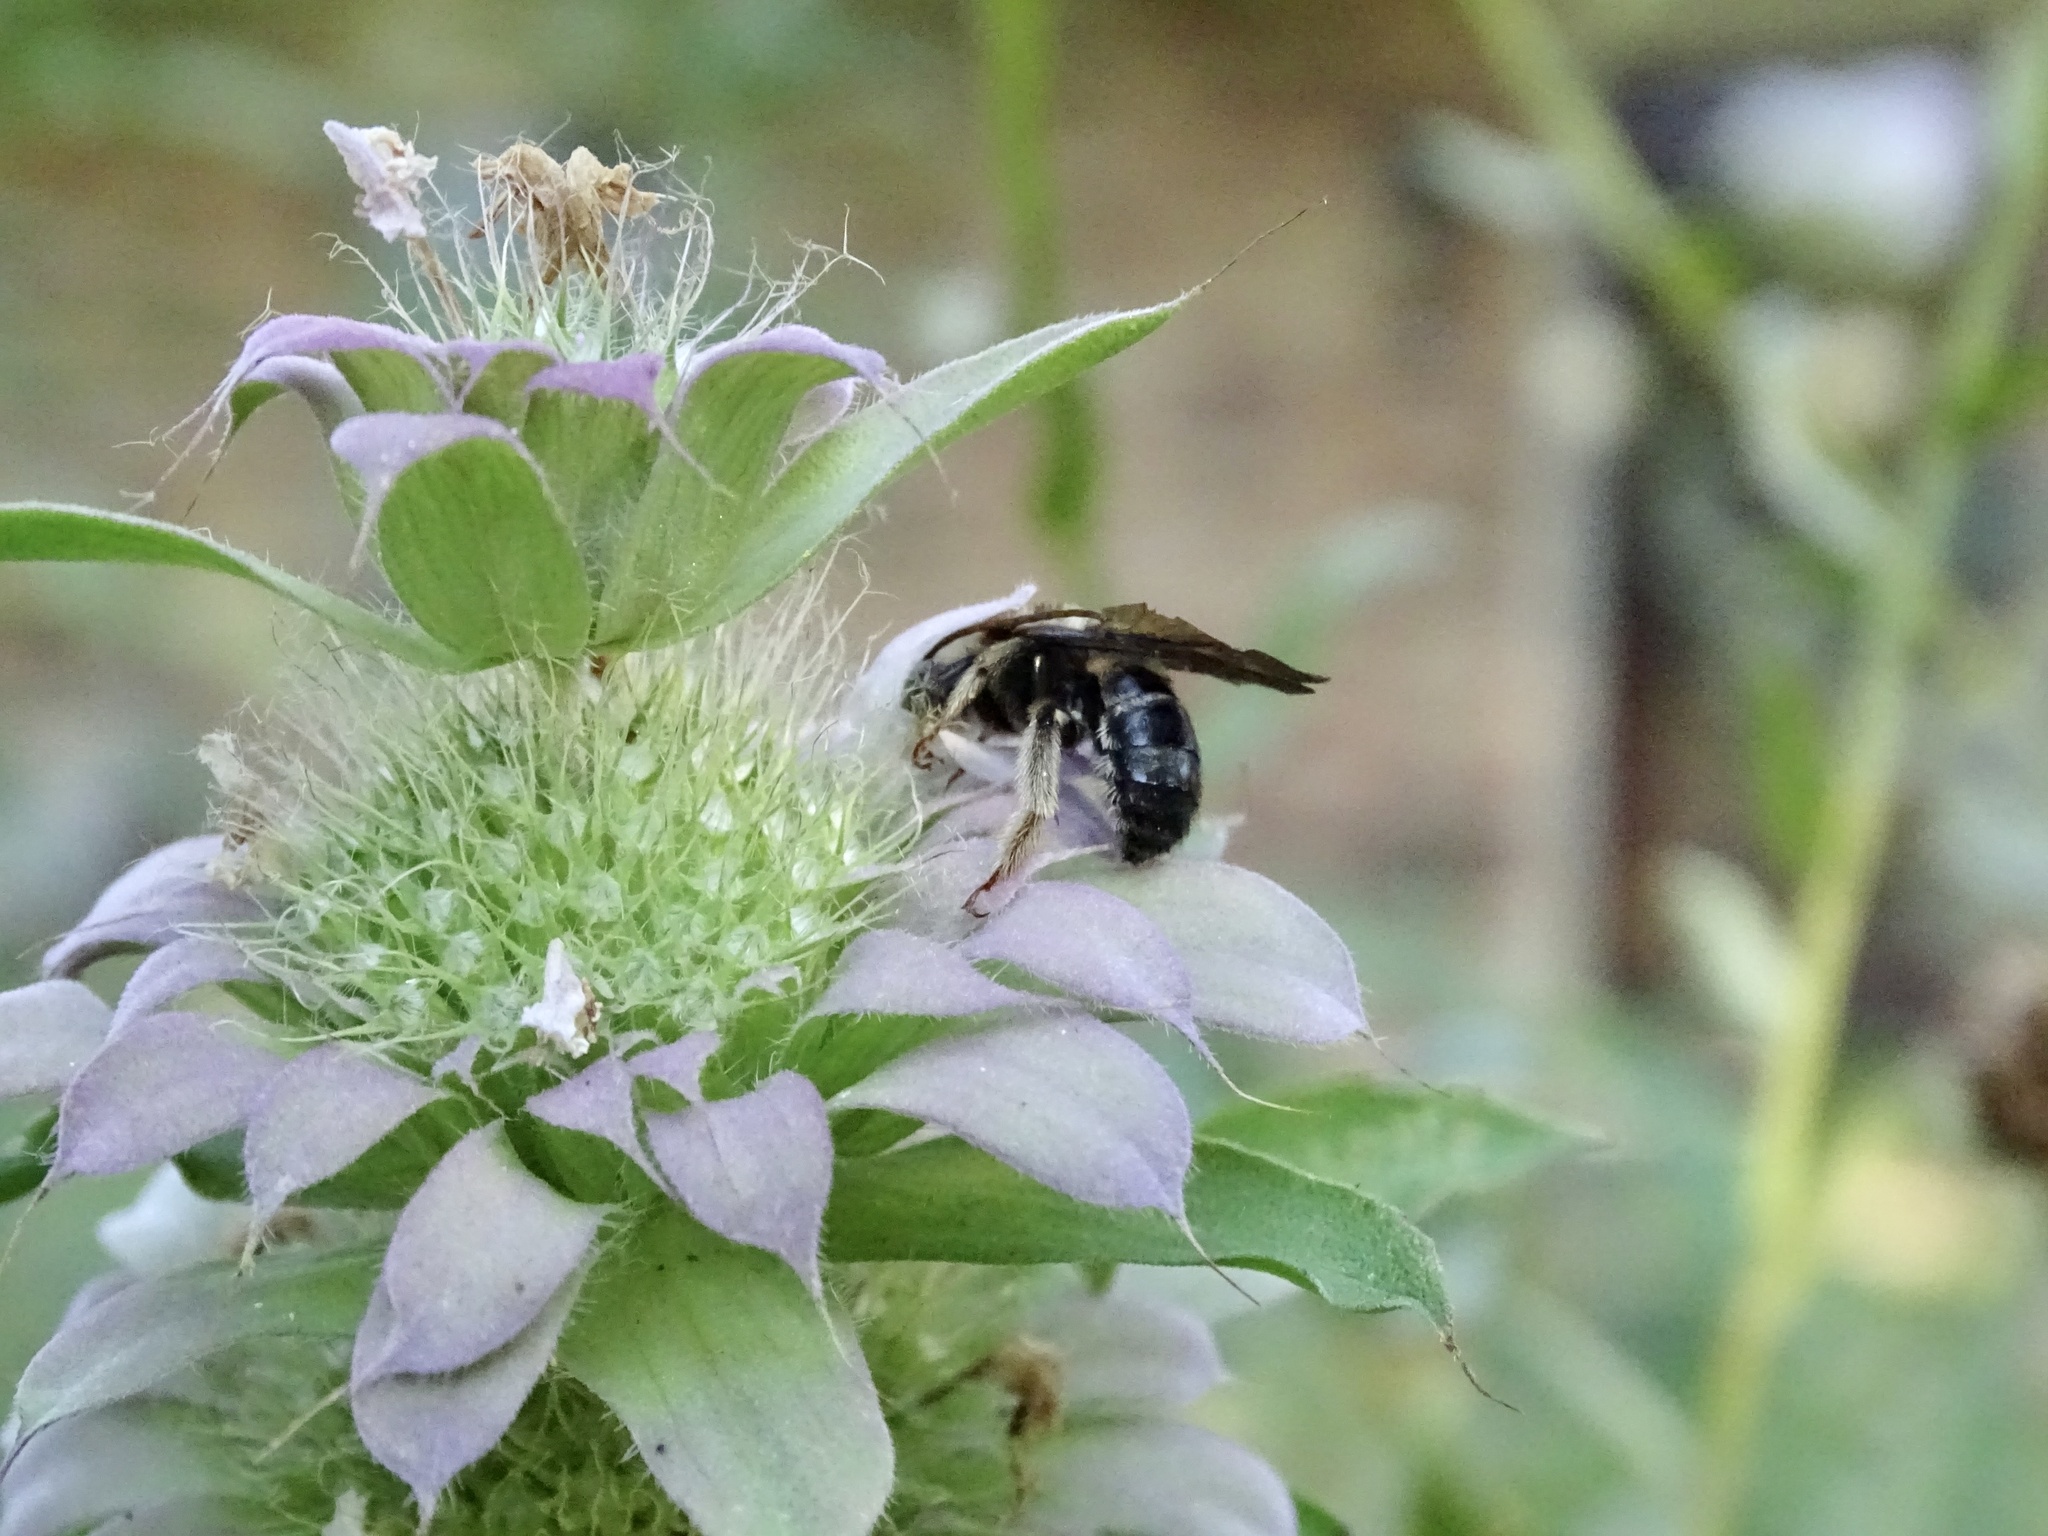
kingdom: Animalia
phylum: Arthropoda
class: Insecta
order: Hymenoptera
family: Apidae
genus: Melissodes
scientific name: Melissodes bimaculatus
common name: Two-spotted long-horned bee
